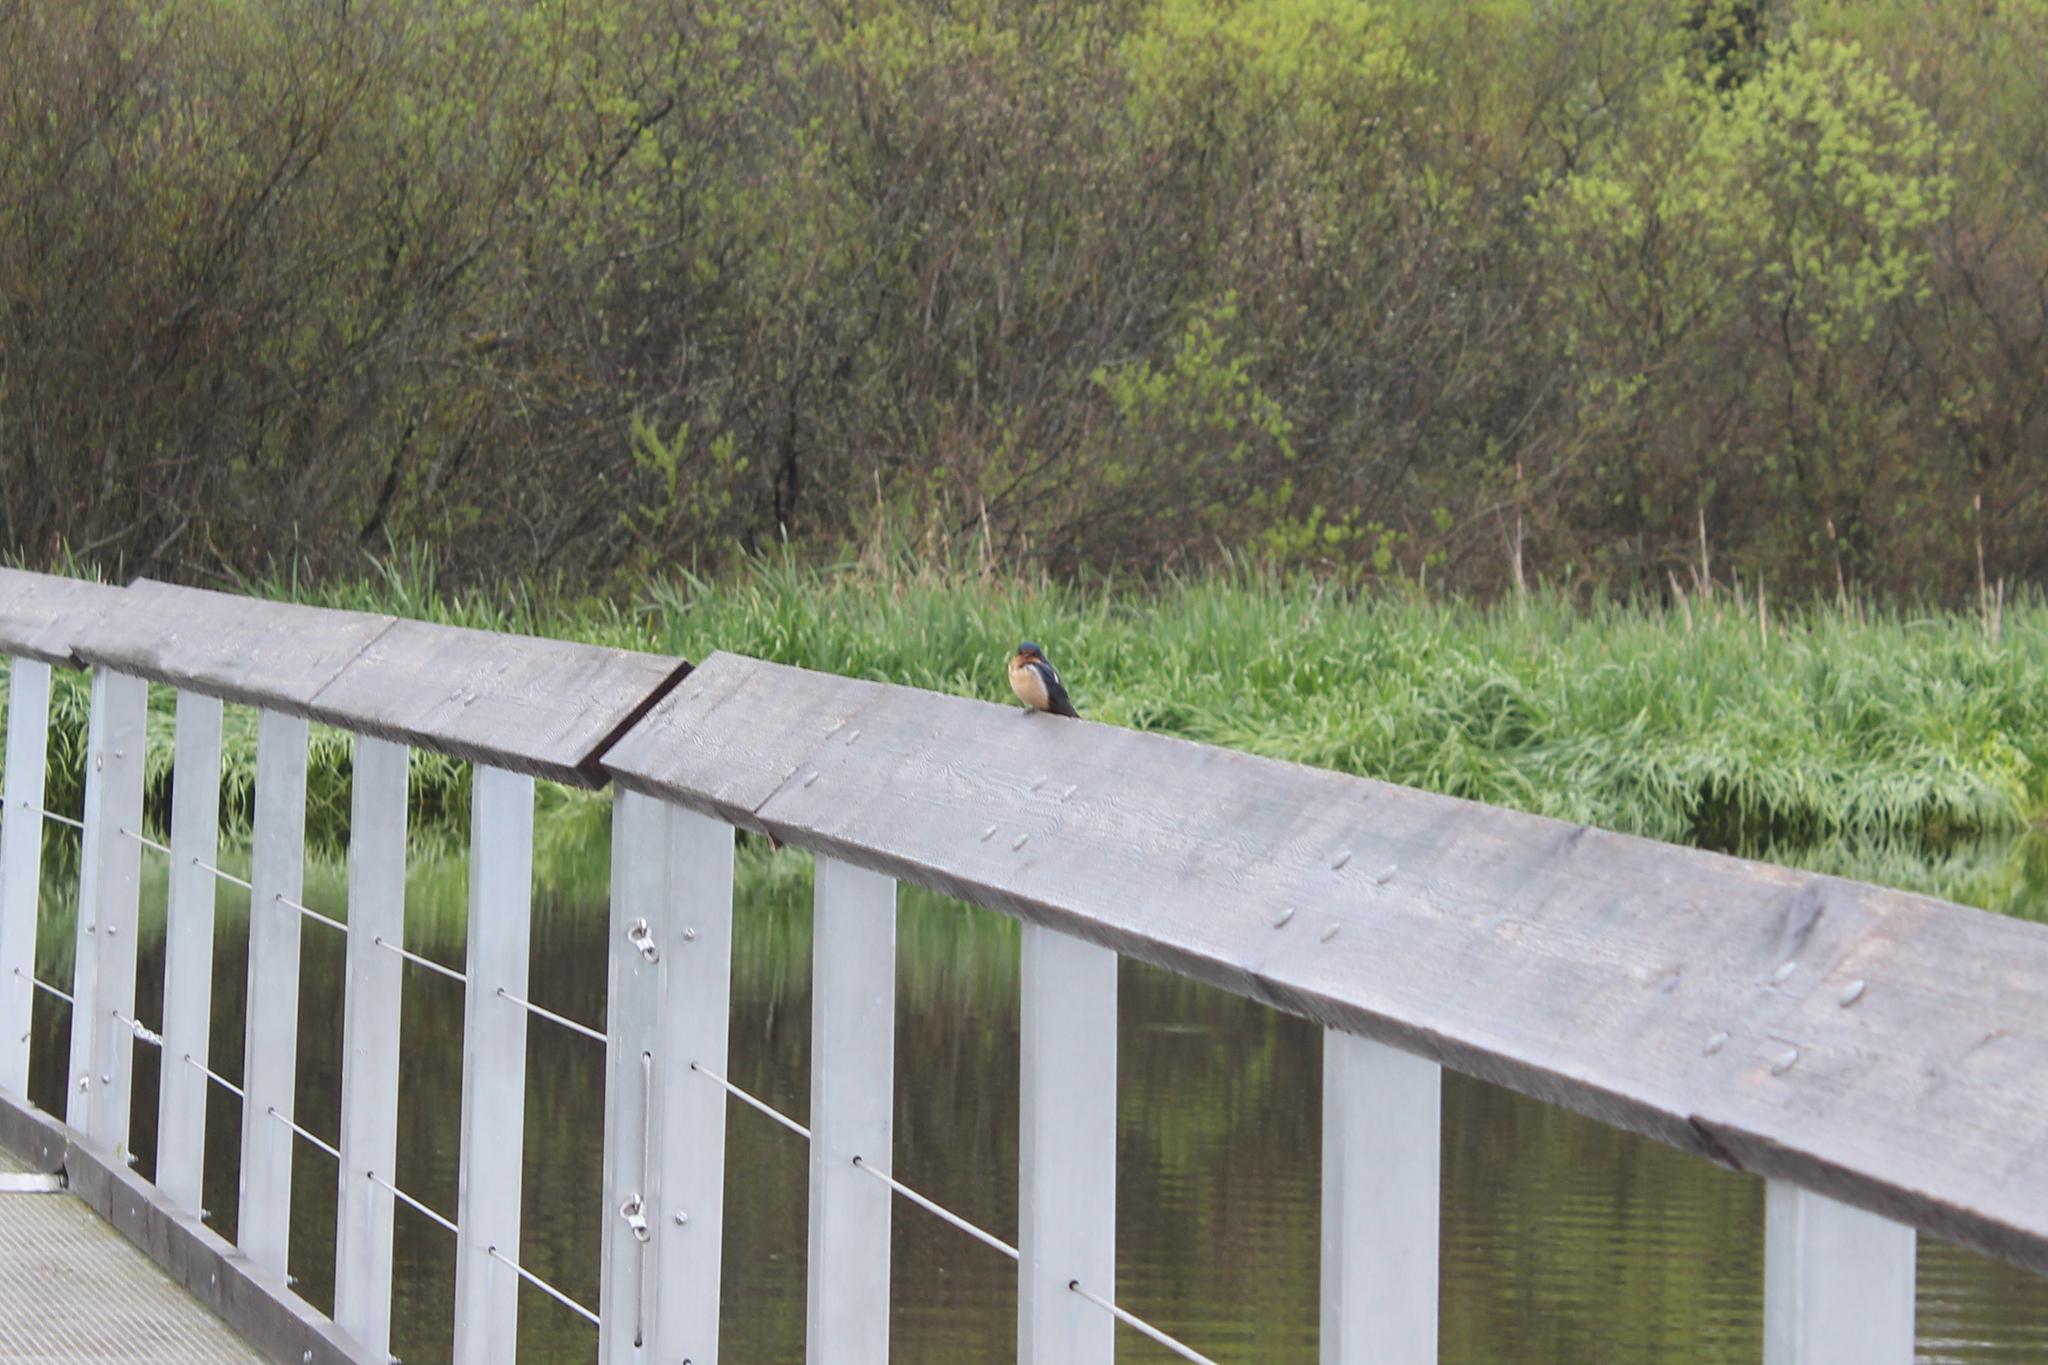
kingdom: Animalia
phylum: Chordata
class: Aves
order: Passeriformes
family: Hirundinidae
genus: Hirundo
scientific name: Hirundo rustica
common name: Barn swallow
